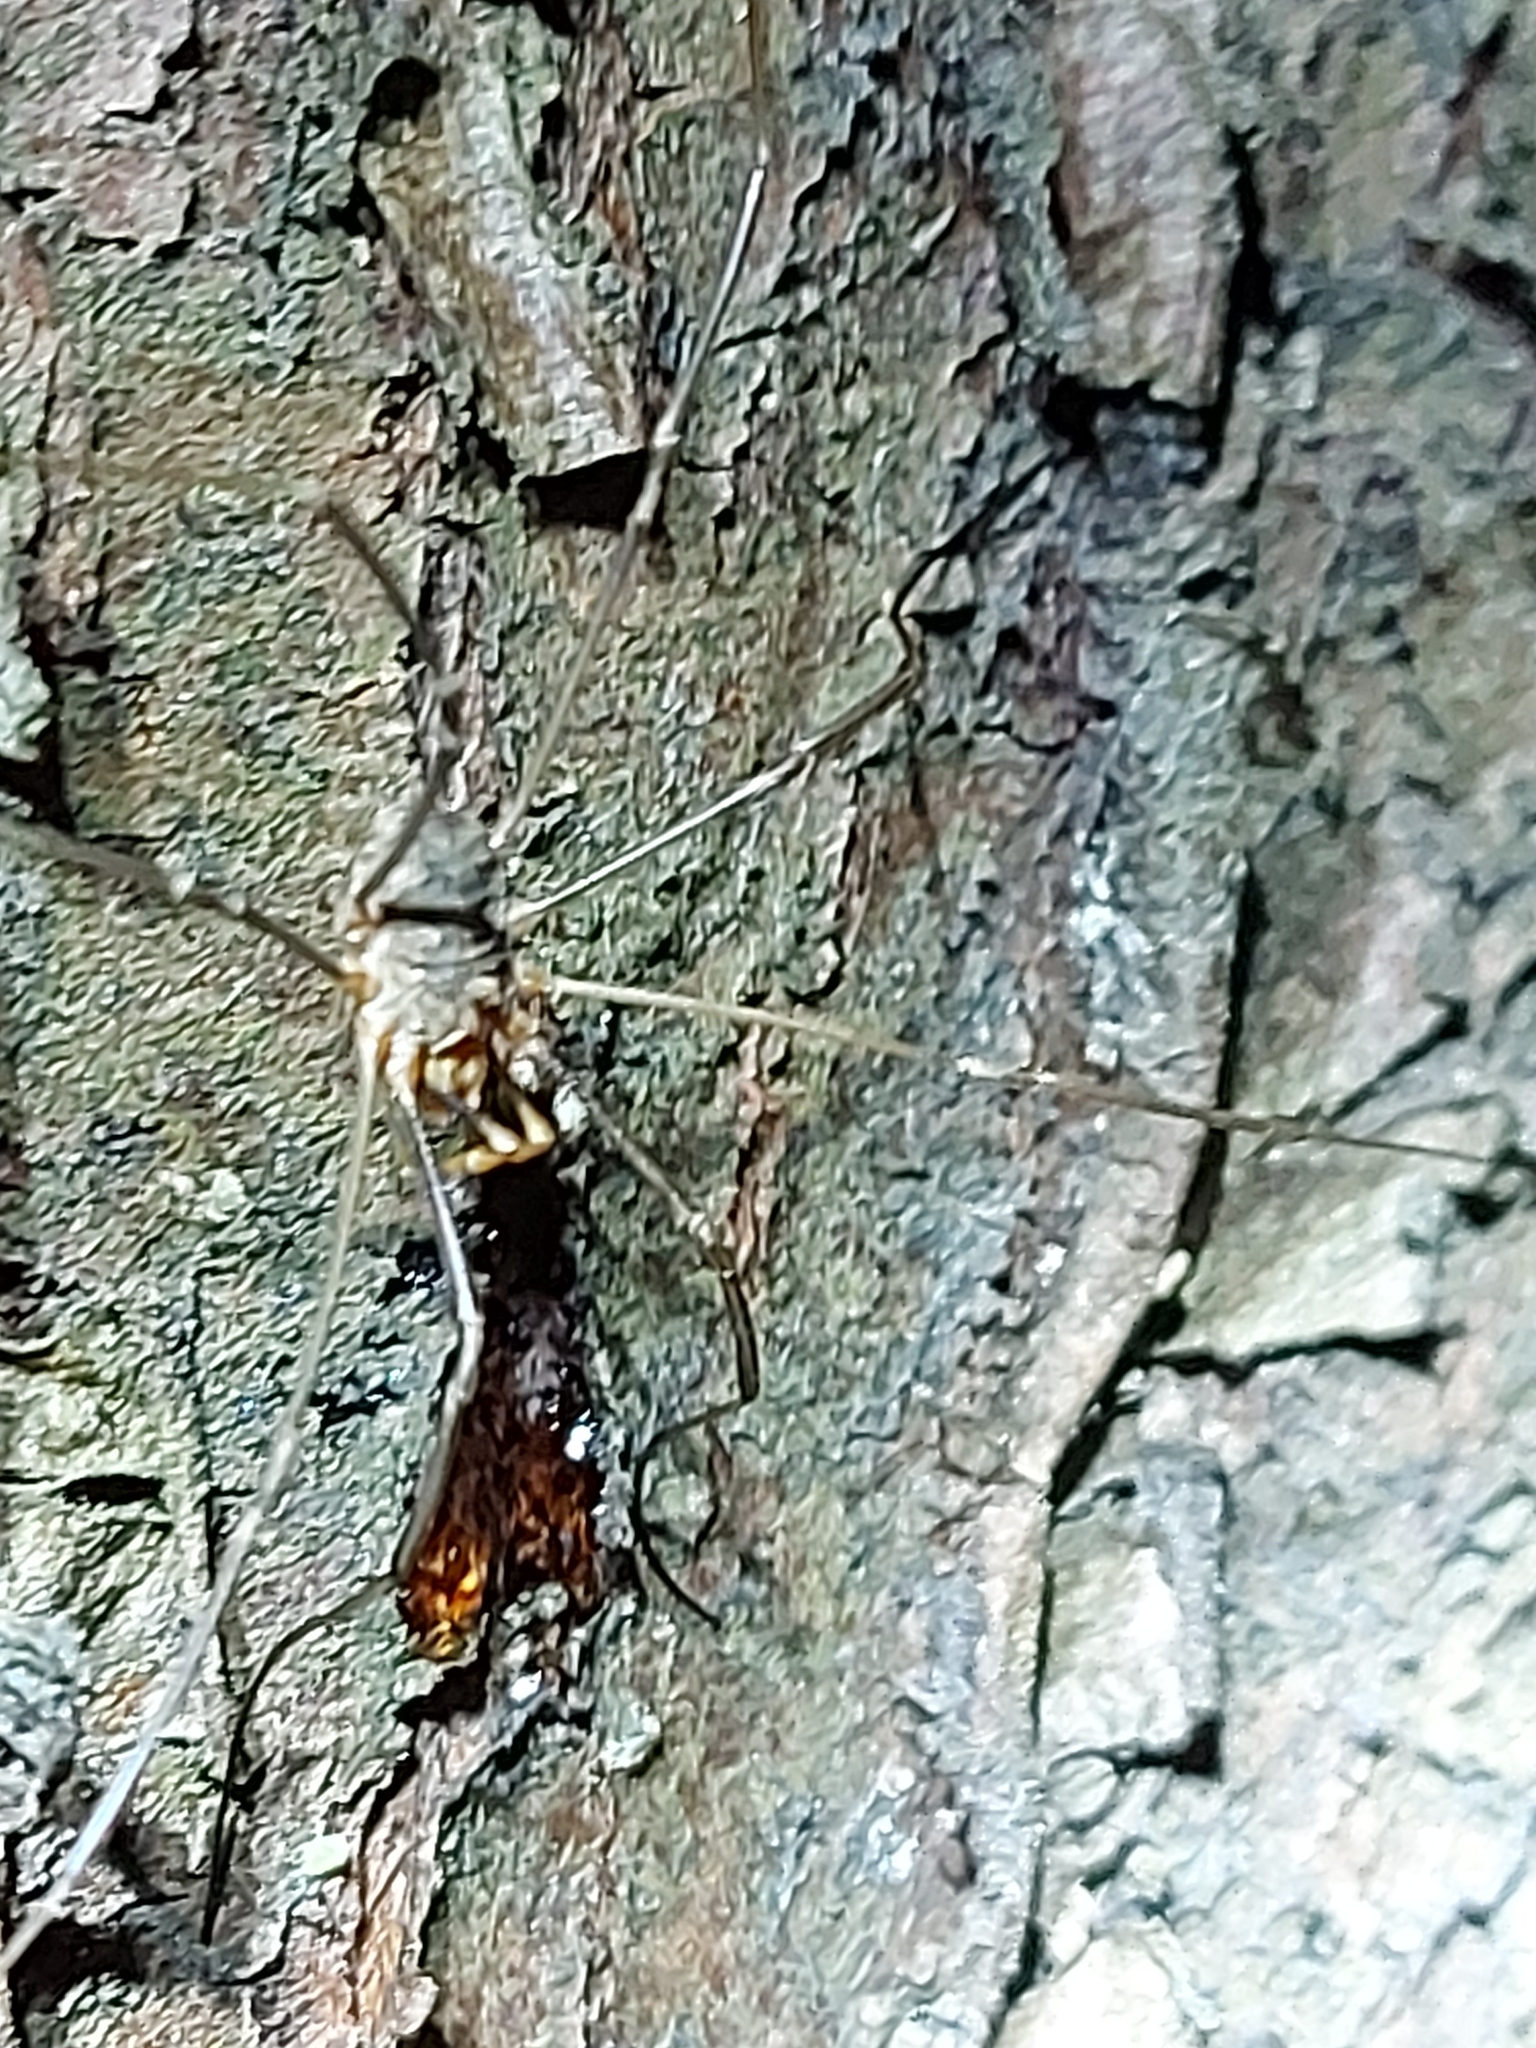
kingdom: Animalia
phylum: Arthropoda
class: Arachnida
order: Opiliones
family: Phalangiidae
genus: Phalangium
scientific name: Phalangium opilio
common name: Daddy longleg
